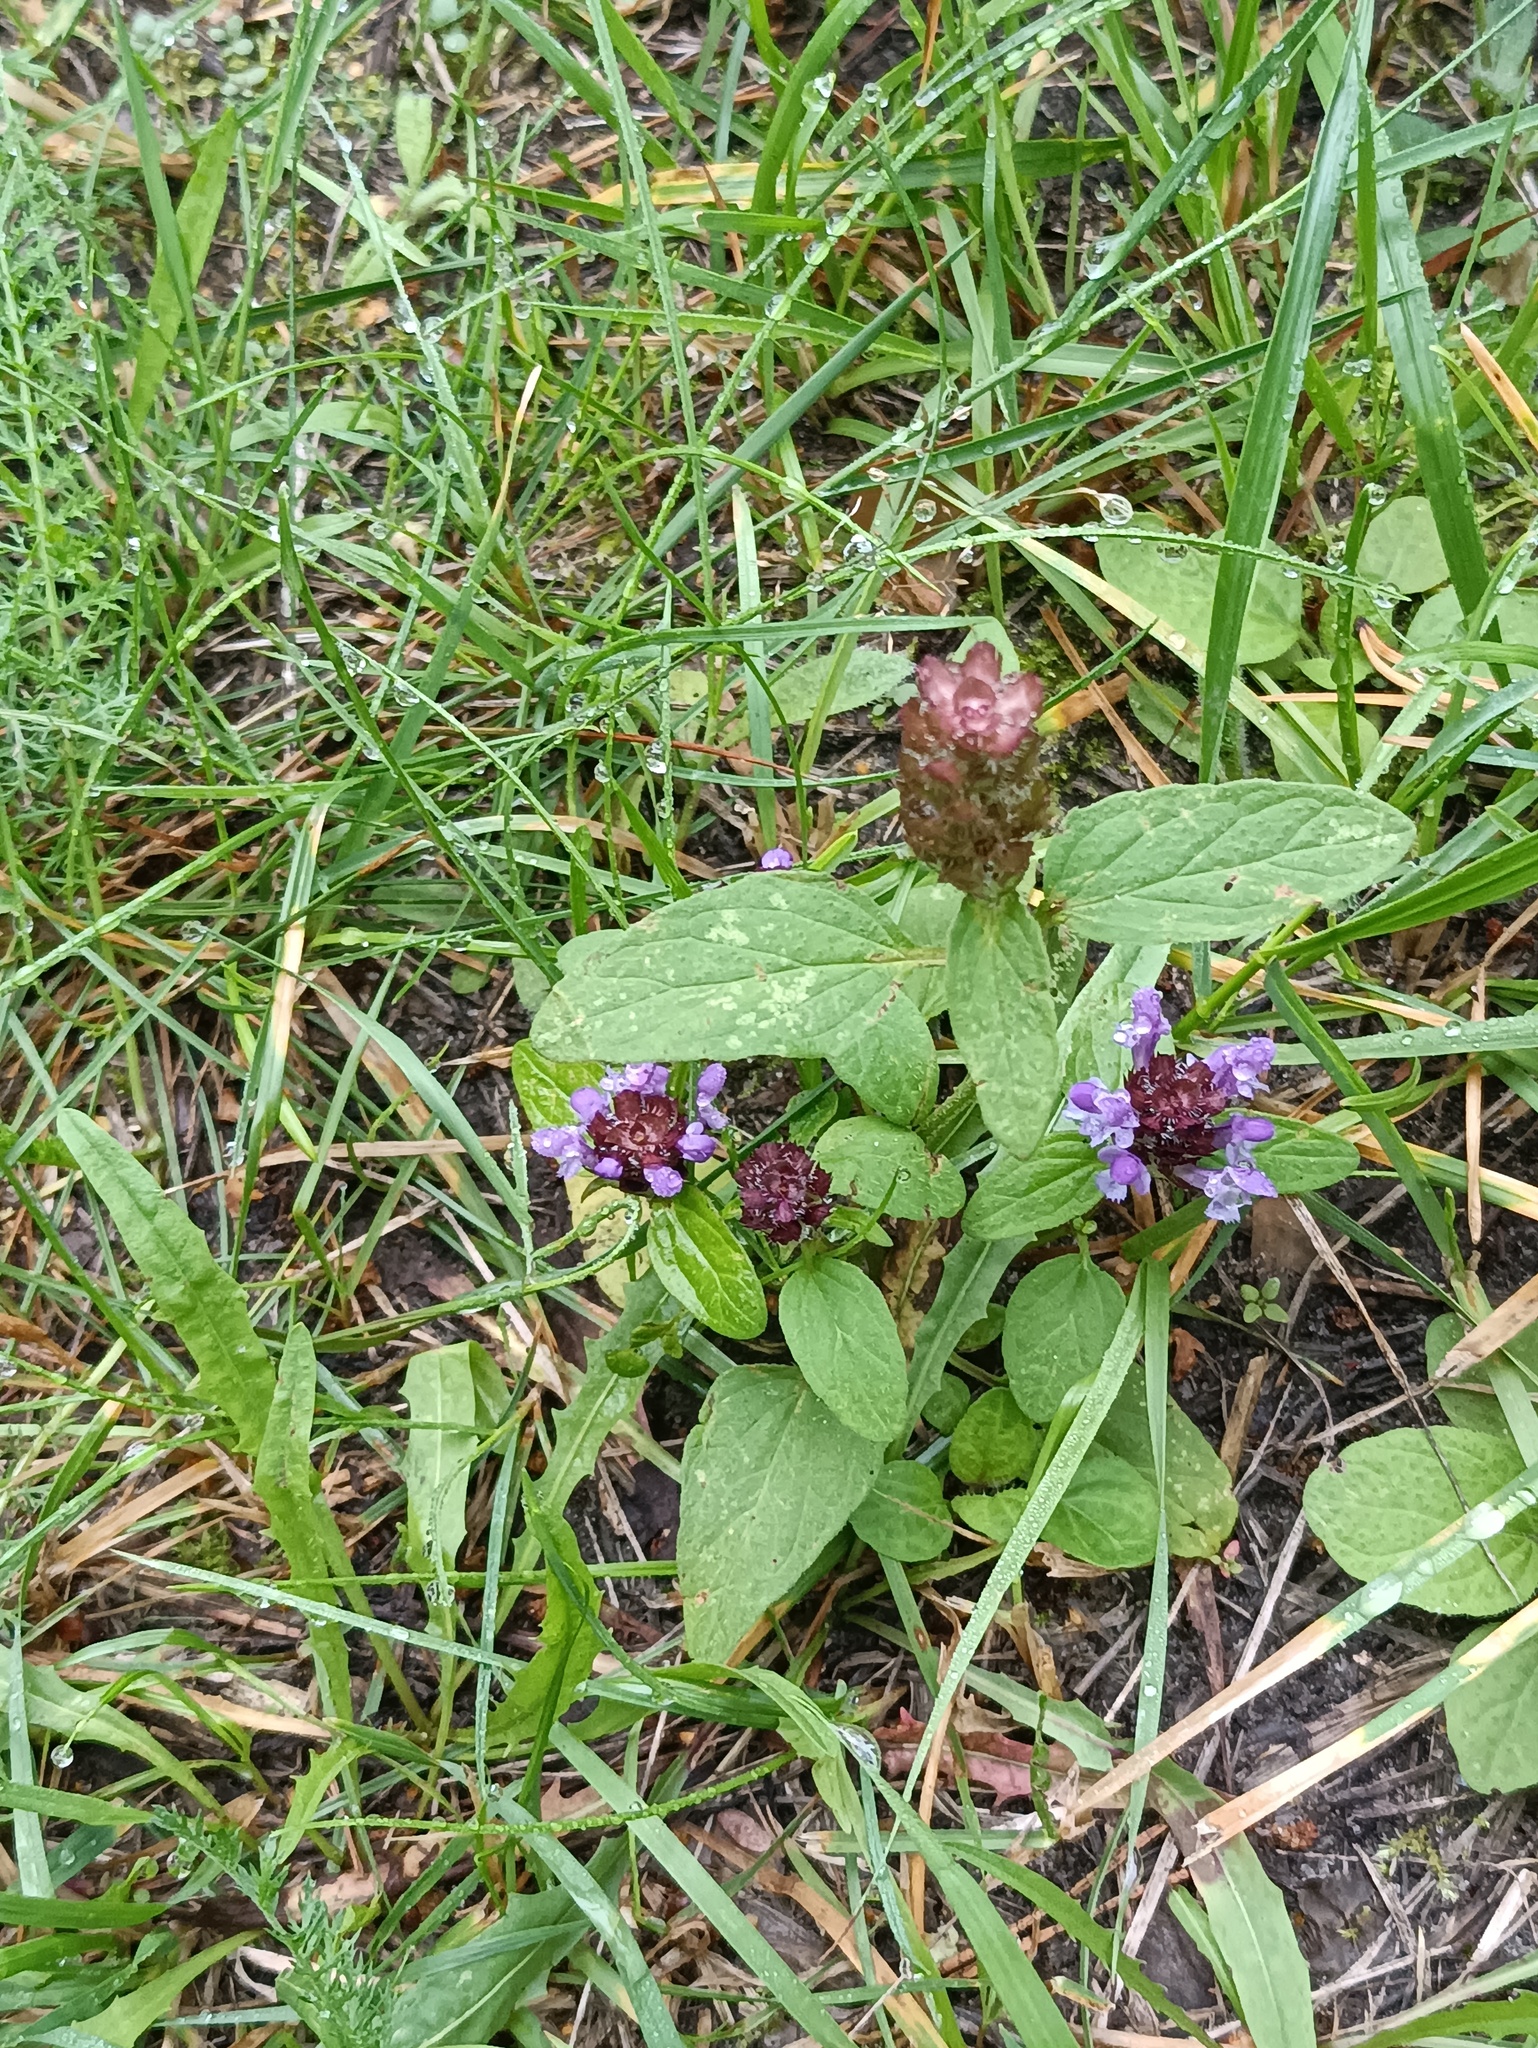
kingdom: Plantae
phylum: Tracheophyta
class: Magnoliopsida
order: Lamiales
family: Lamiaceae
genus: Prunella
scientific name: Prunella vulgaris
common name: Heal-all
